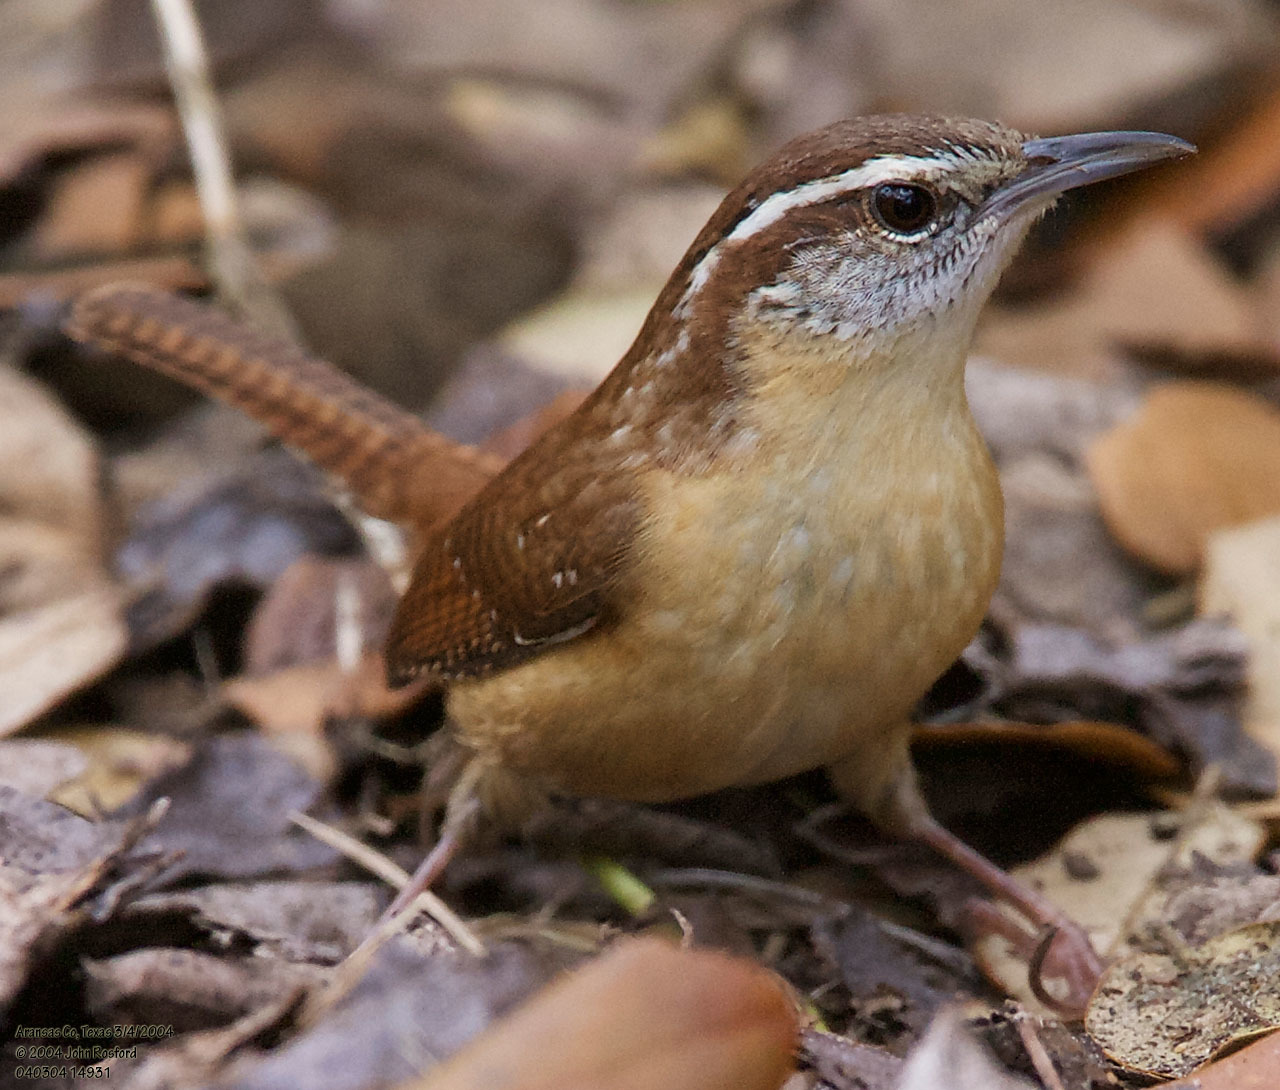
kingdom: Animalia
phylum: Chordata
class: Aves
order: Passeriformes
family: Troglodytidae
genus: Thryothorus
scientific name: Thryothorus ludovicianus
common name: Carolina wren
